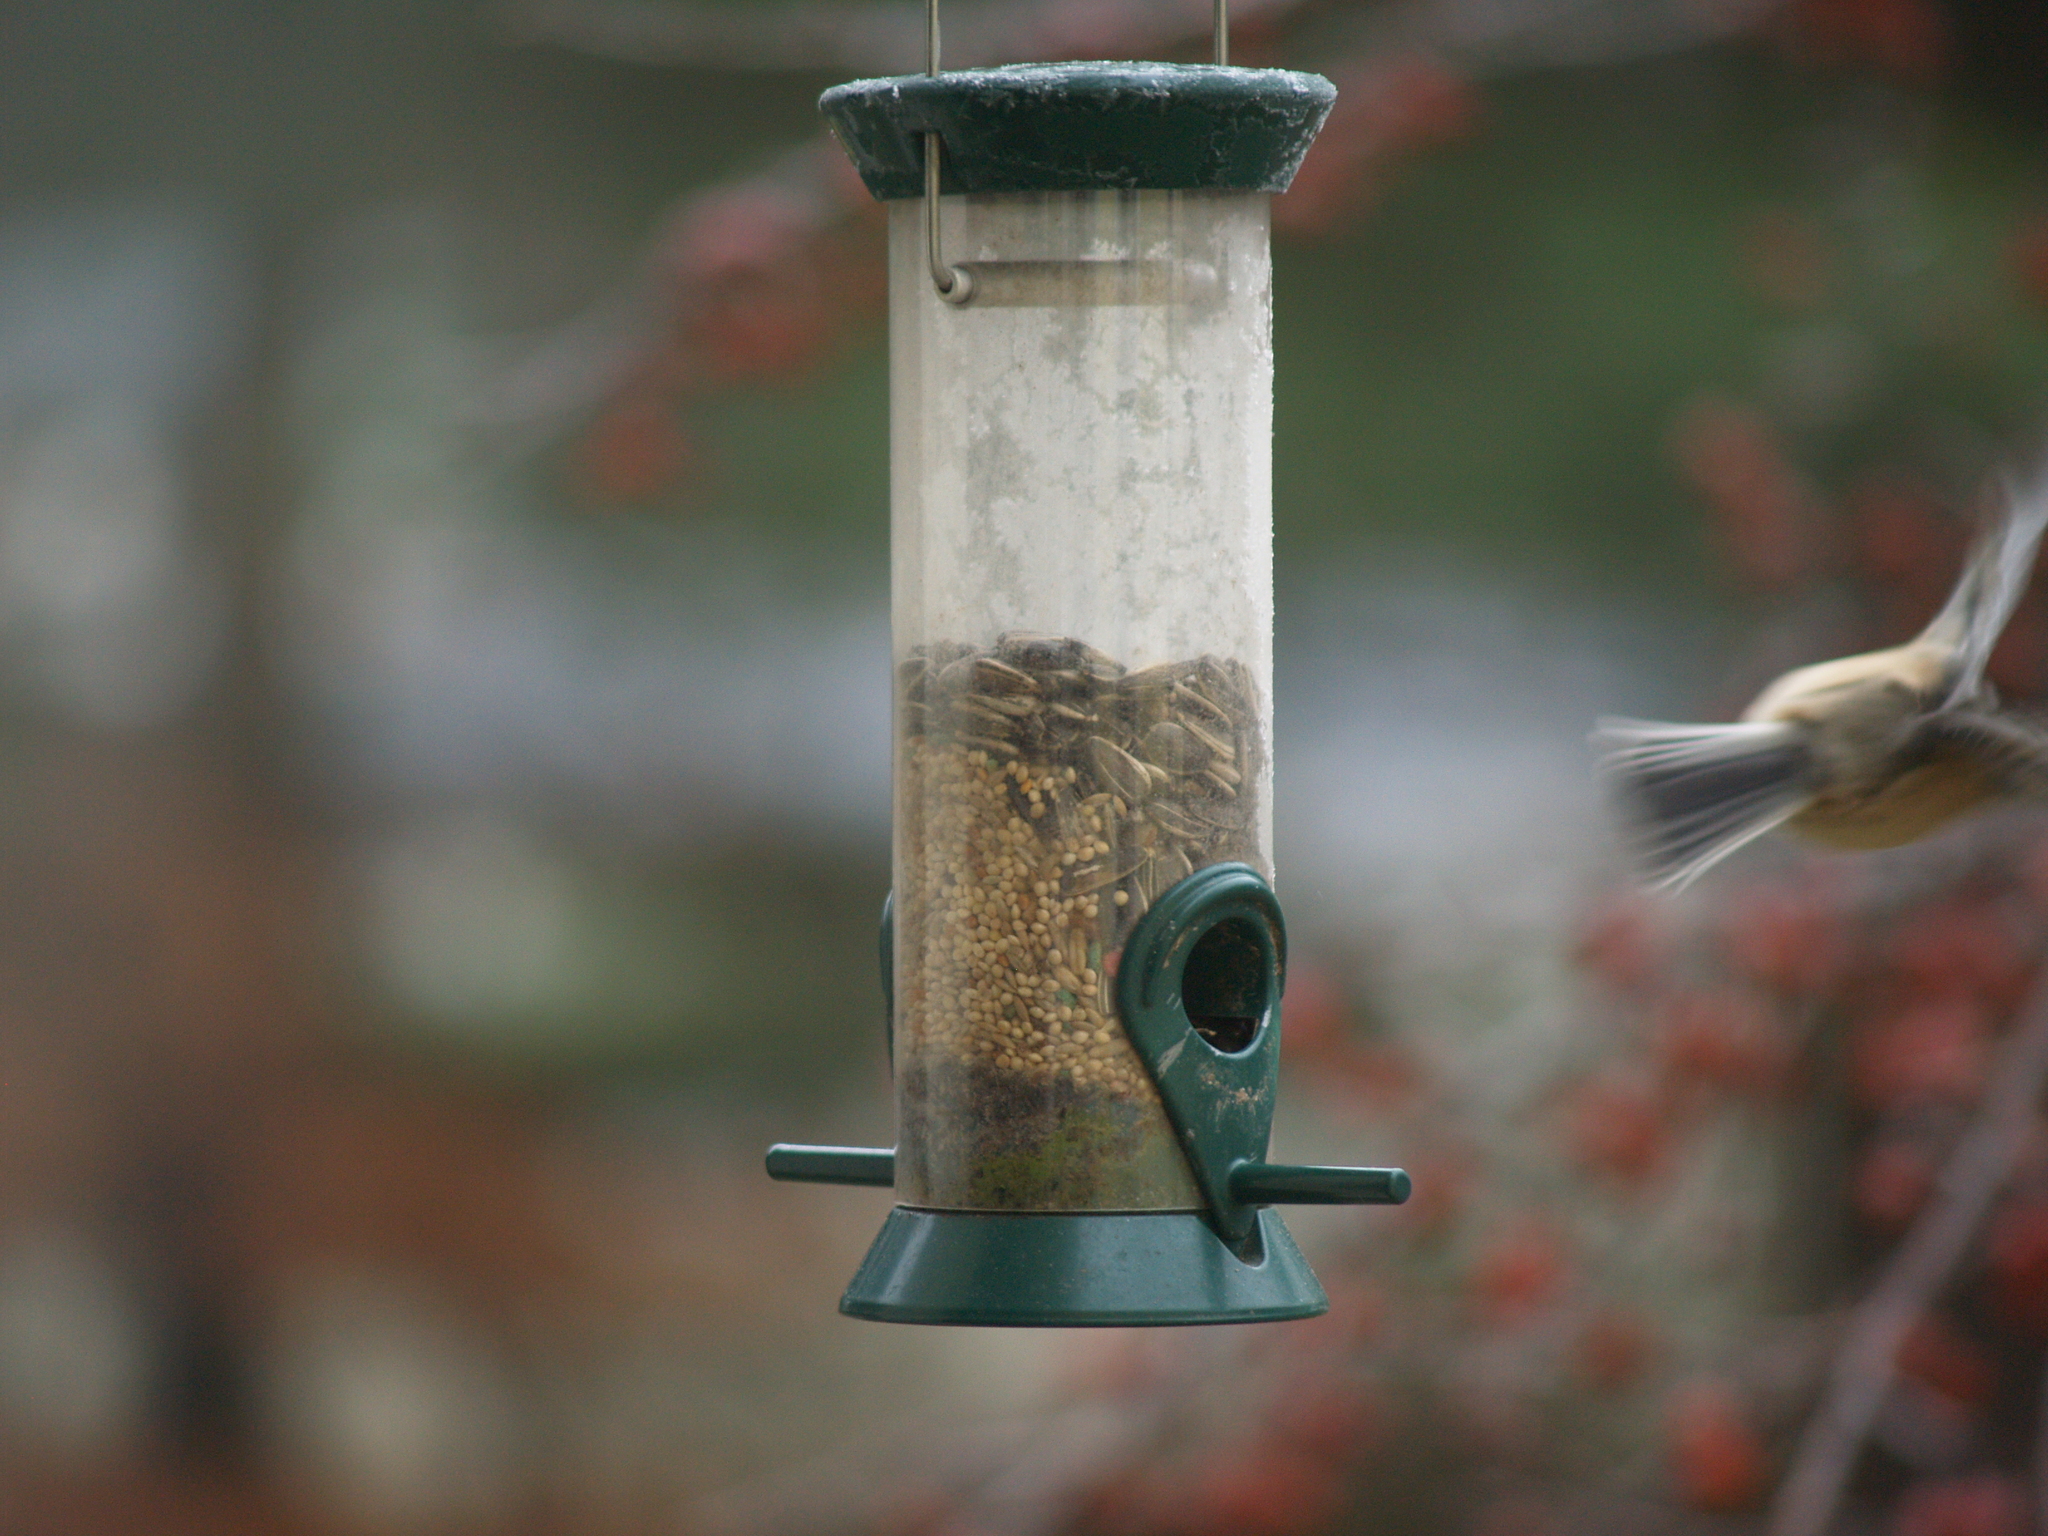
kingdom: Animalia
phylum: Chordata
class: Aves
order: Passeriformes
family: Paridae
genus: Poecile
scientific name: Poecile atricapillus
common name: Black-capped chickadee
